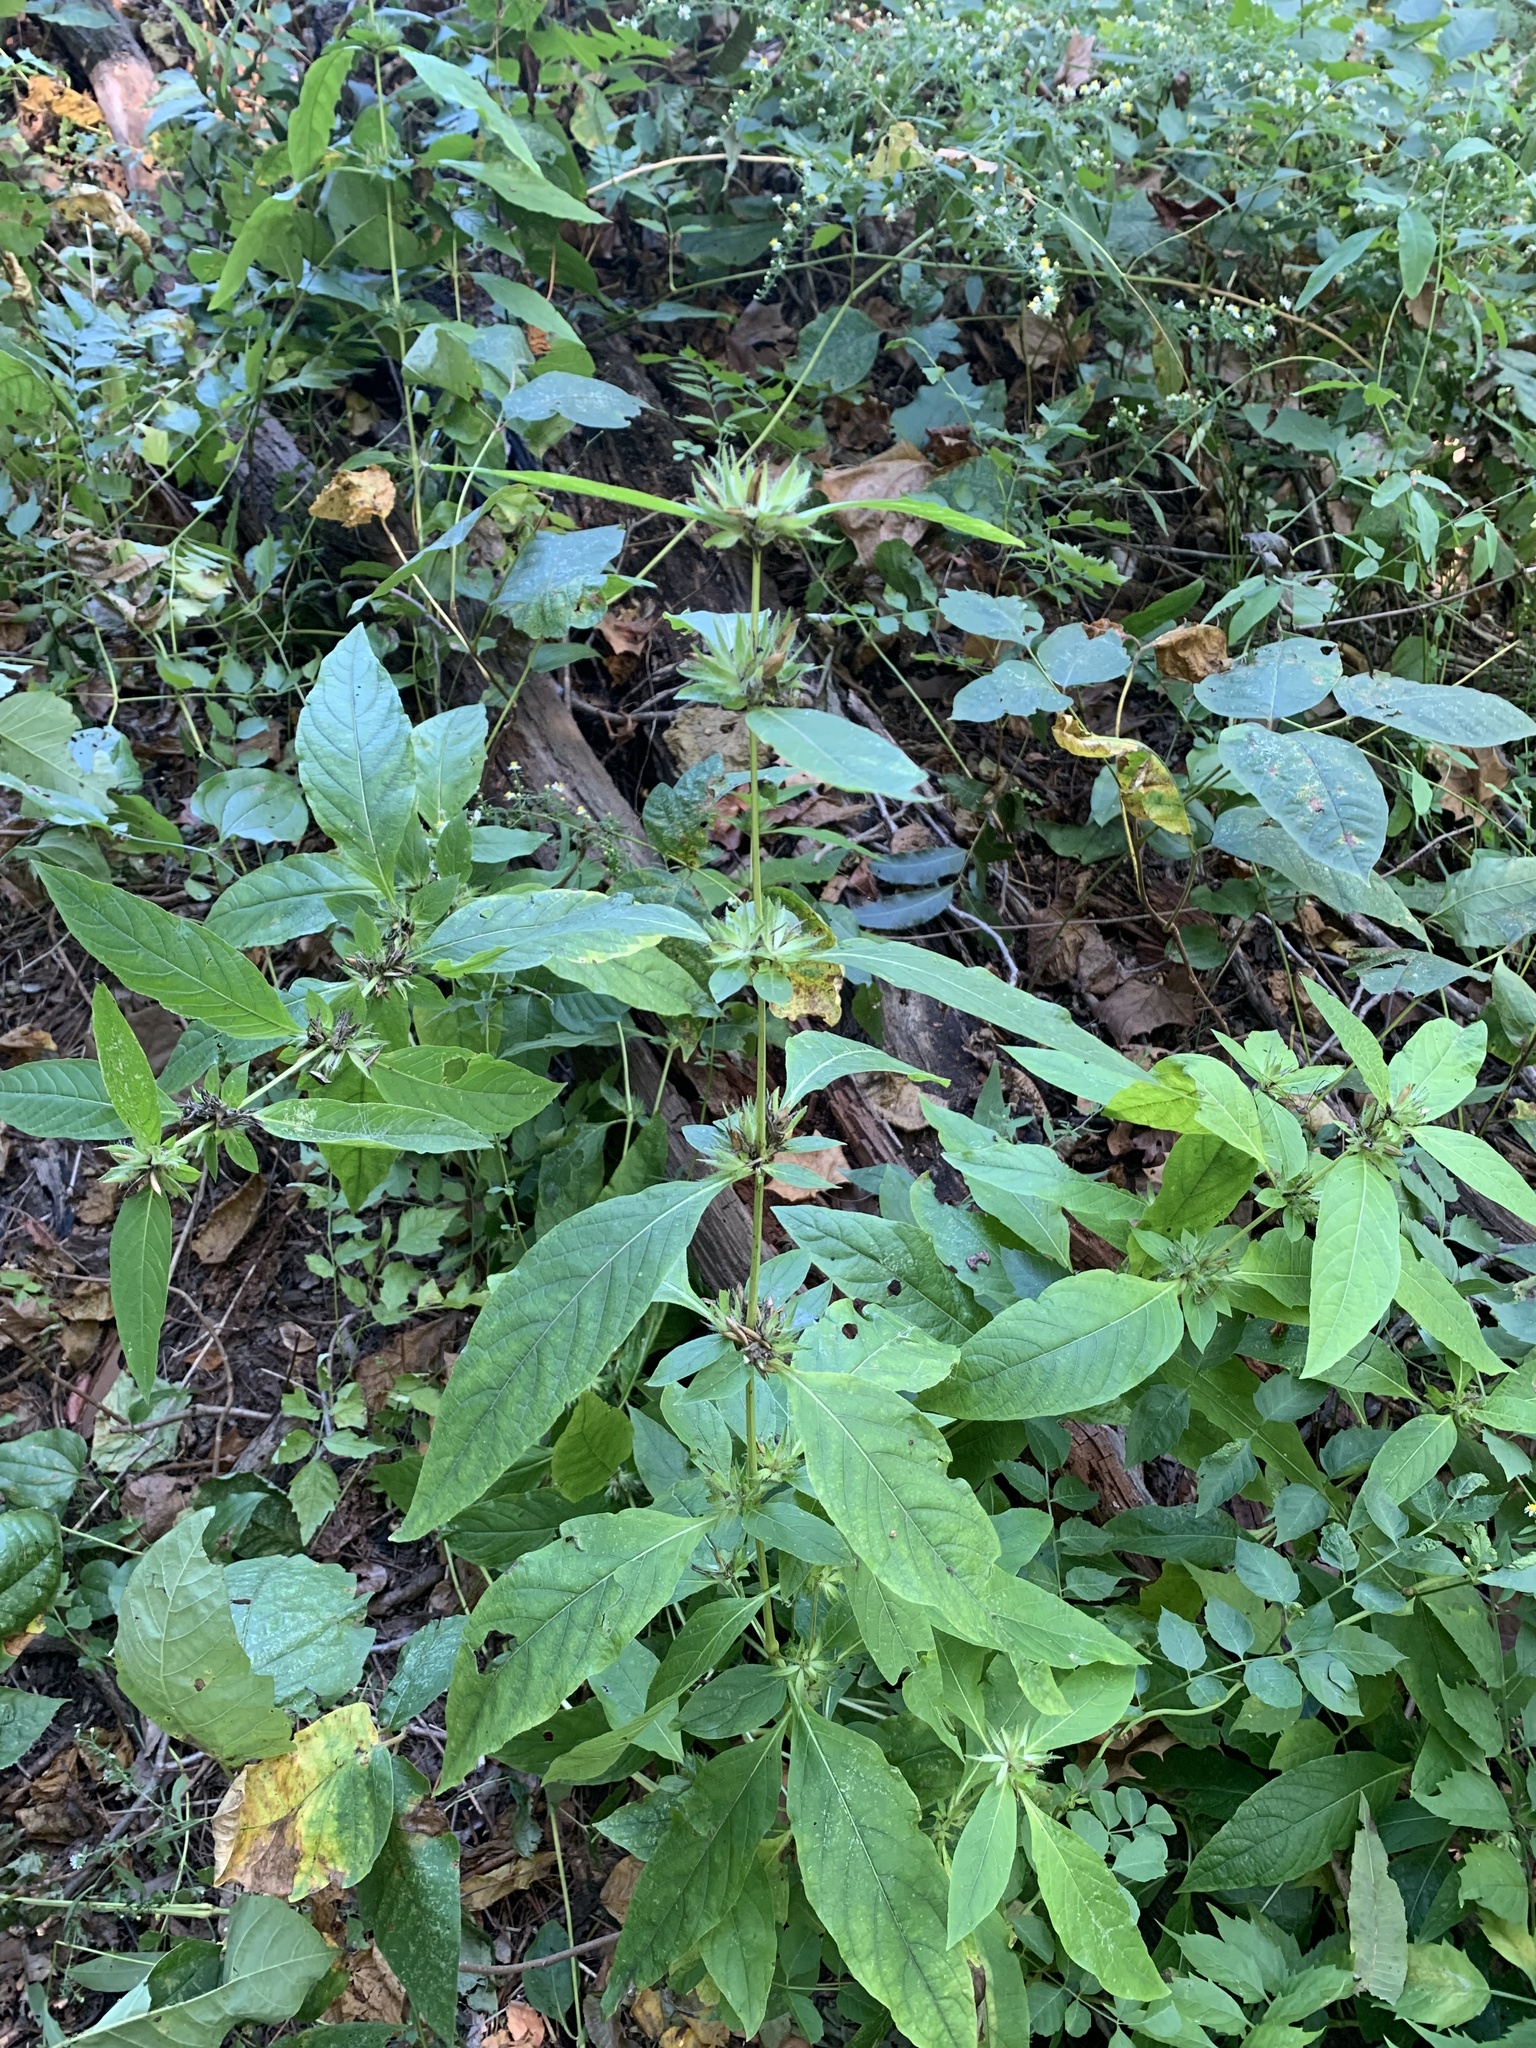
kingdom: Plantae
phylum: Tracheophyta
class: Magnoliopsida
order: Lamiales
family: Acanthaceae
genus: Ruellia
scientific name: Ruellia strepens
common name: Limestone wild petunia
